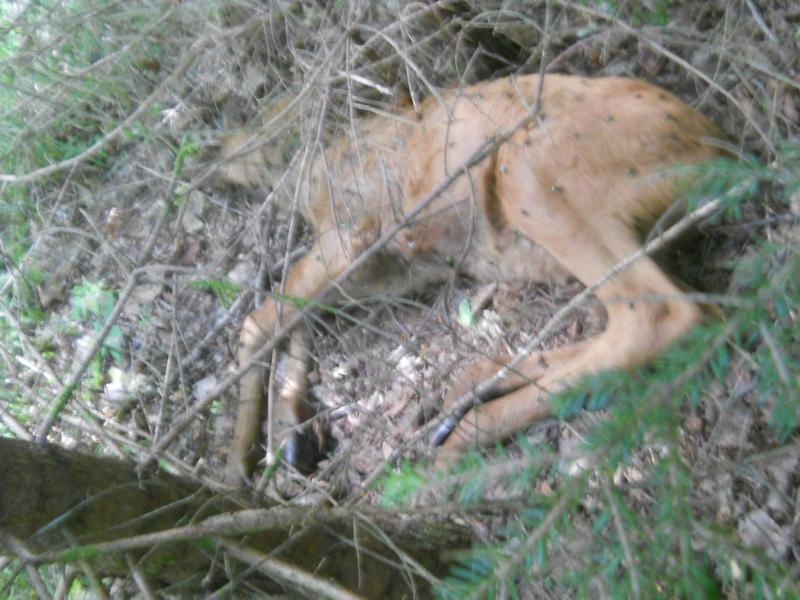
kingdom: Animalia
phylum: Chordata
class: Mammalia
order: Artiodactyla
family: Cervidae
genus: Alces
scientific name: Alces alces
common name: Moose
